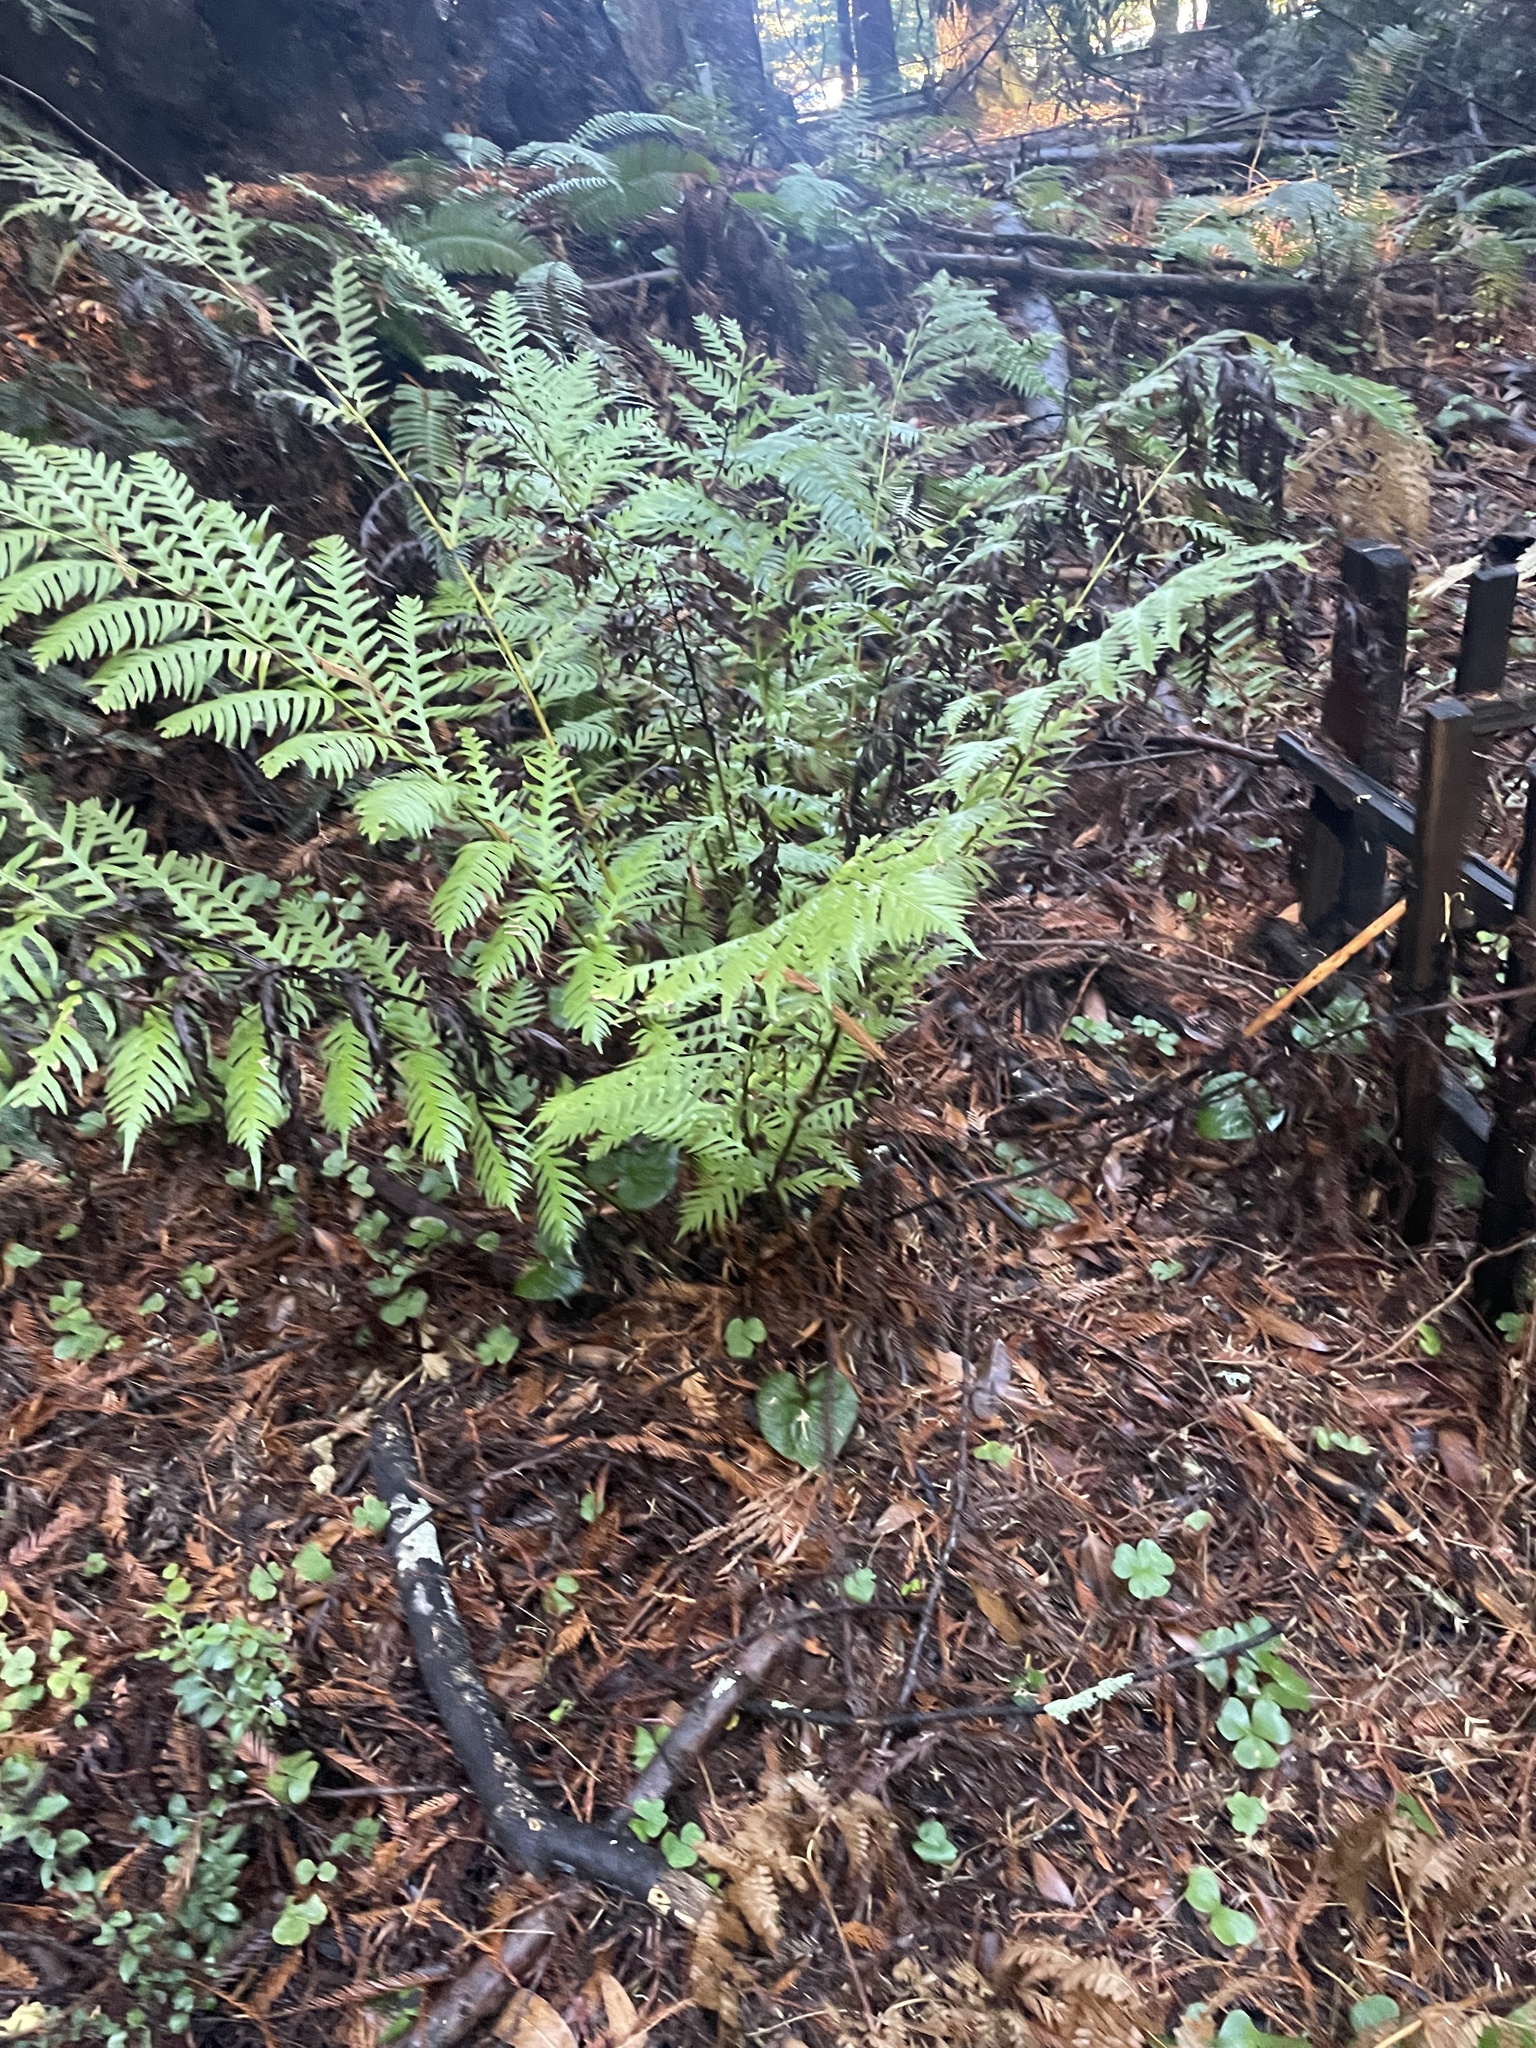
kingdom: Plantae
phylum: Tracheophyta
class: Polypodiopsida
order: Polypodiales
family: Blechnaceae
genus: Woodwardia
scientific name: Woodwardia fimbriata
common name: Giant chain fern
